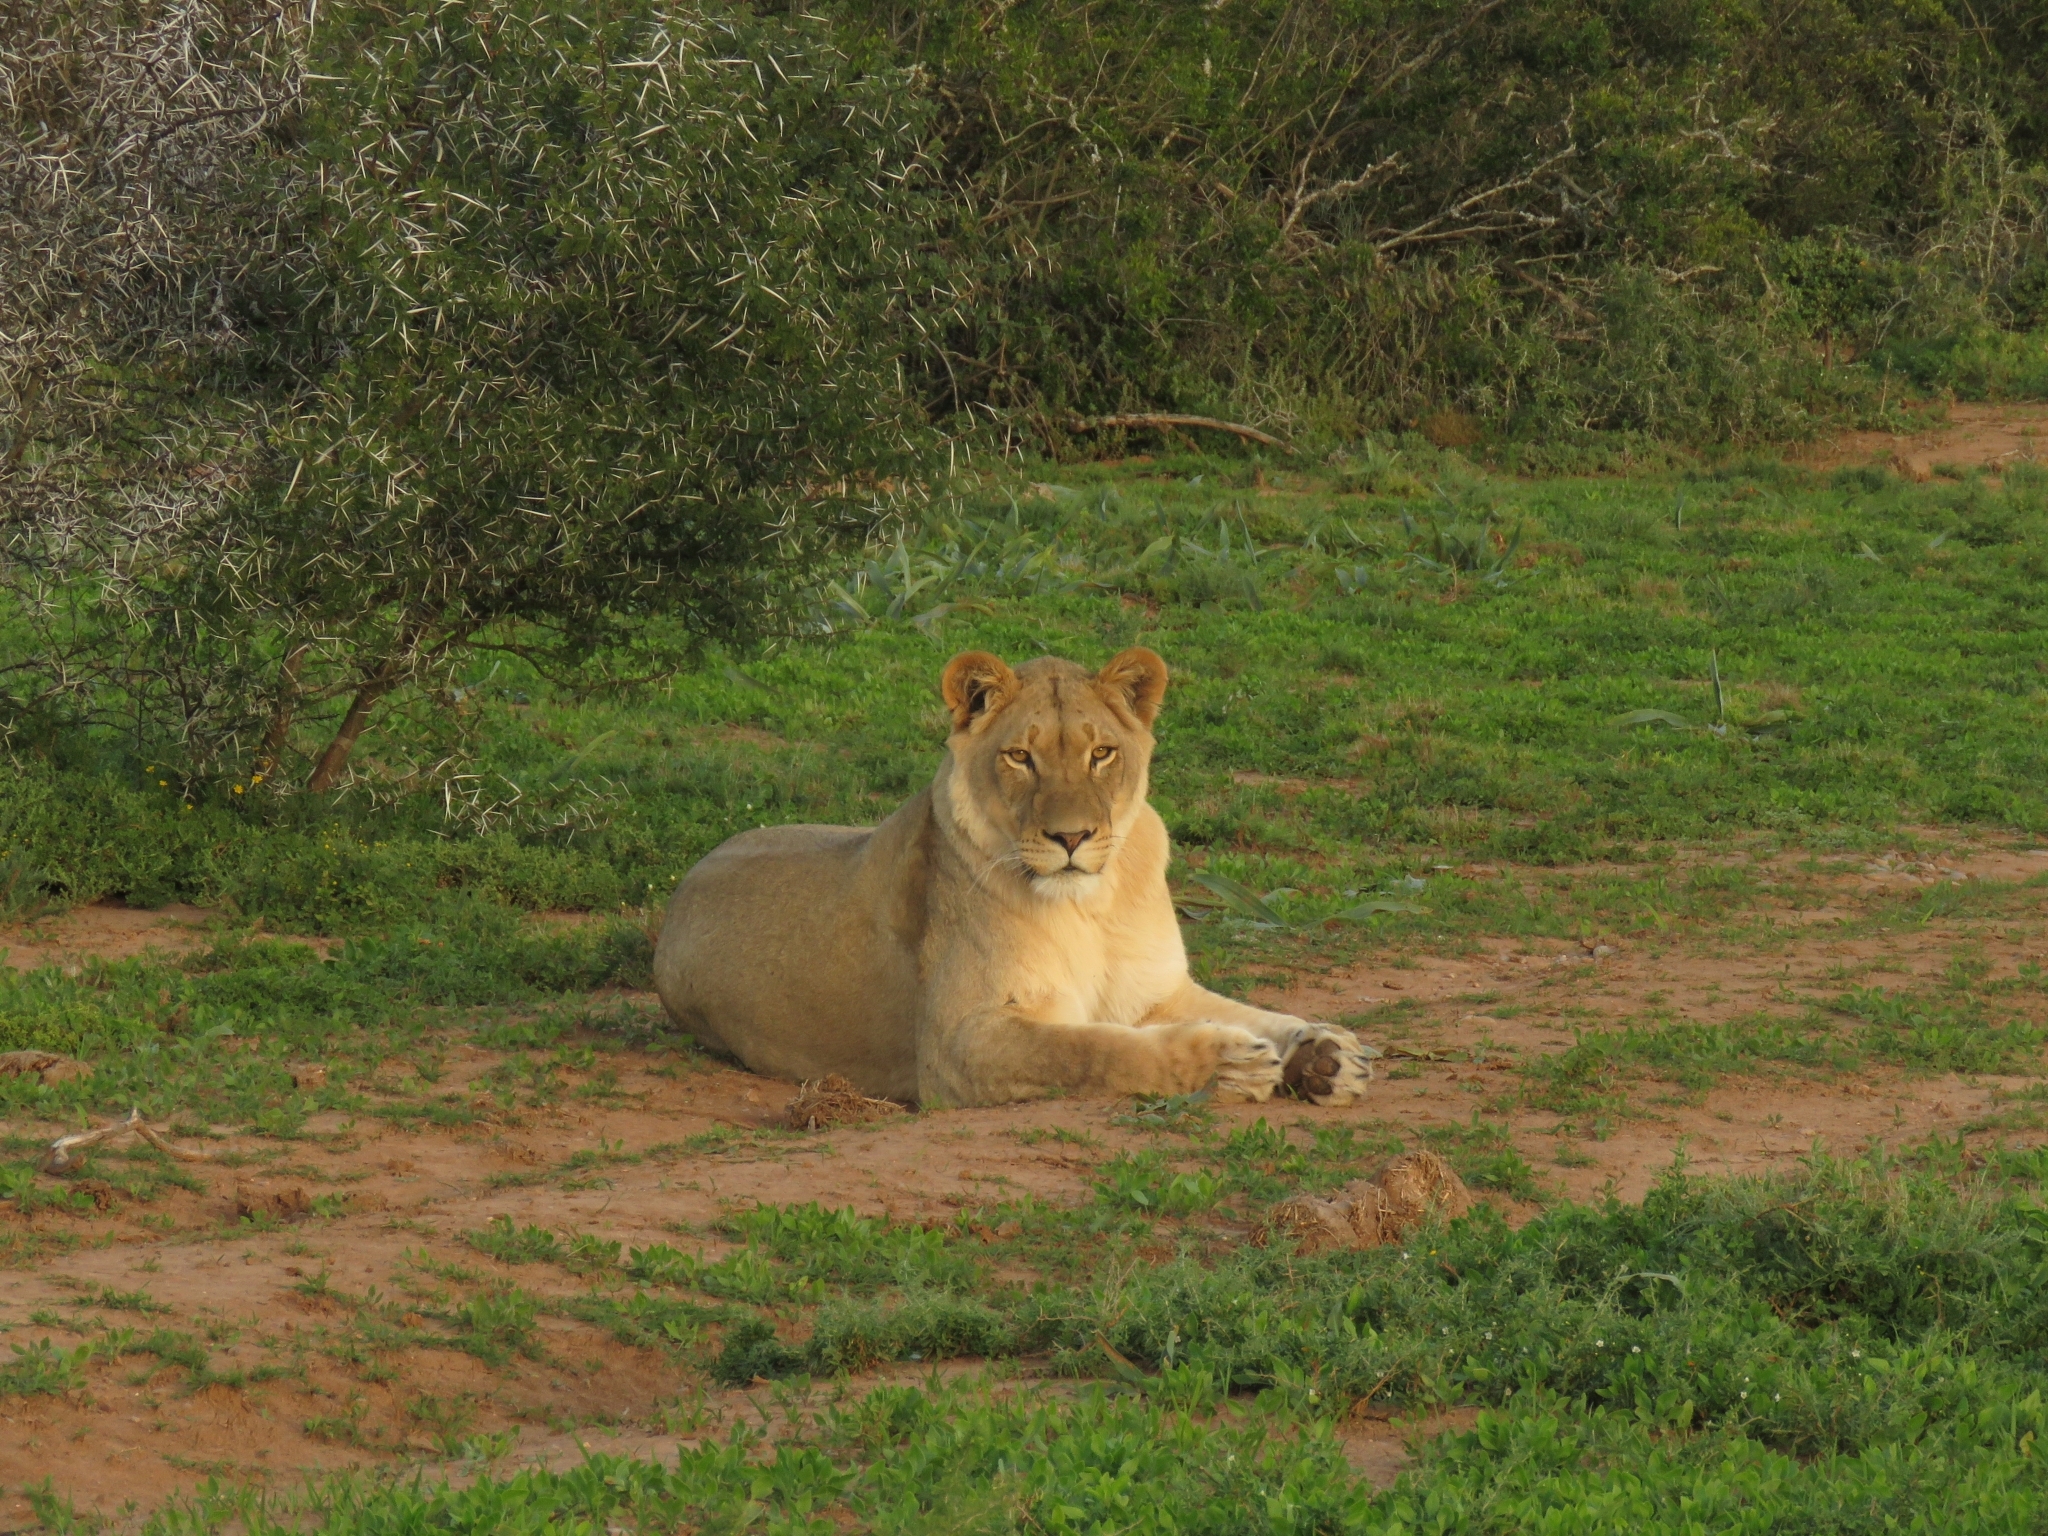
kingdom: Animalia
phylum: Chordata
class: Mammalia
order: Carnivora
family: Felidae
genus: Panthera
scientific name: Panthera leo
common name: Lion
